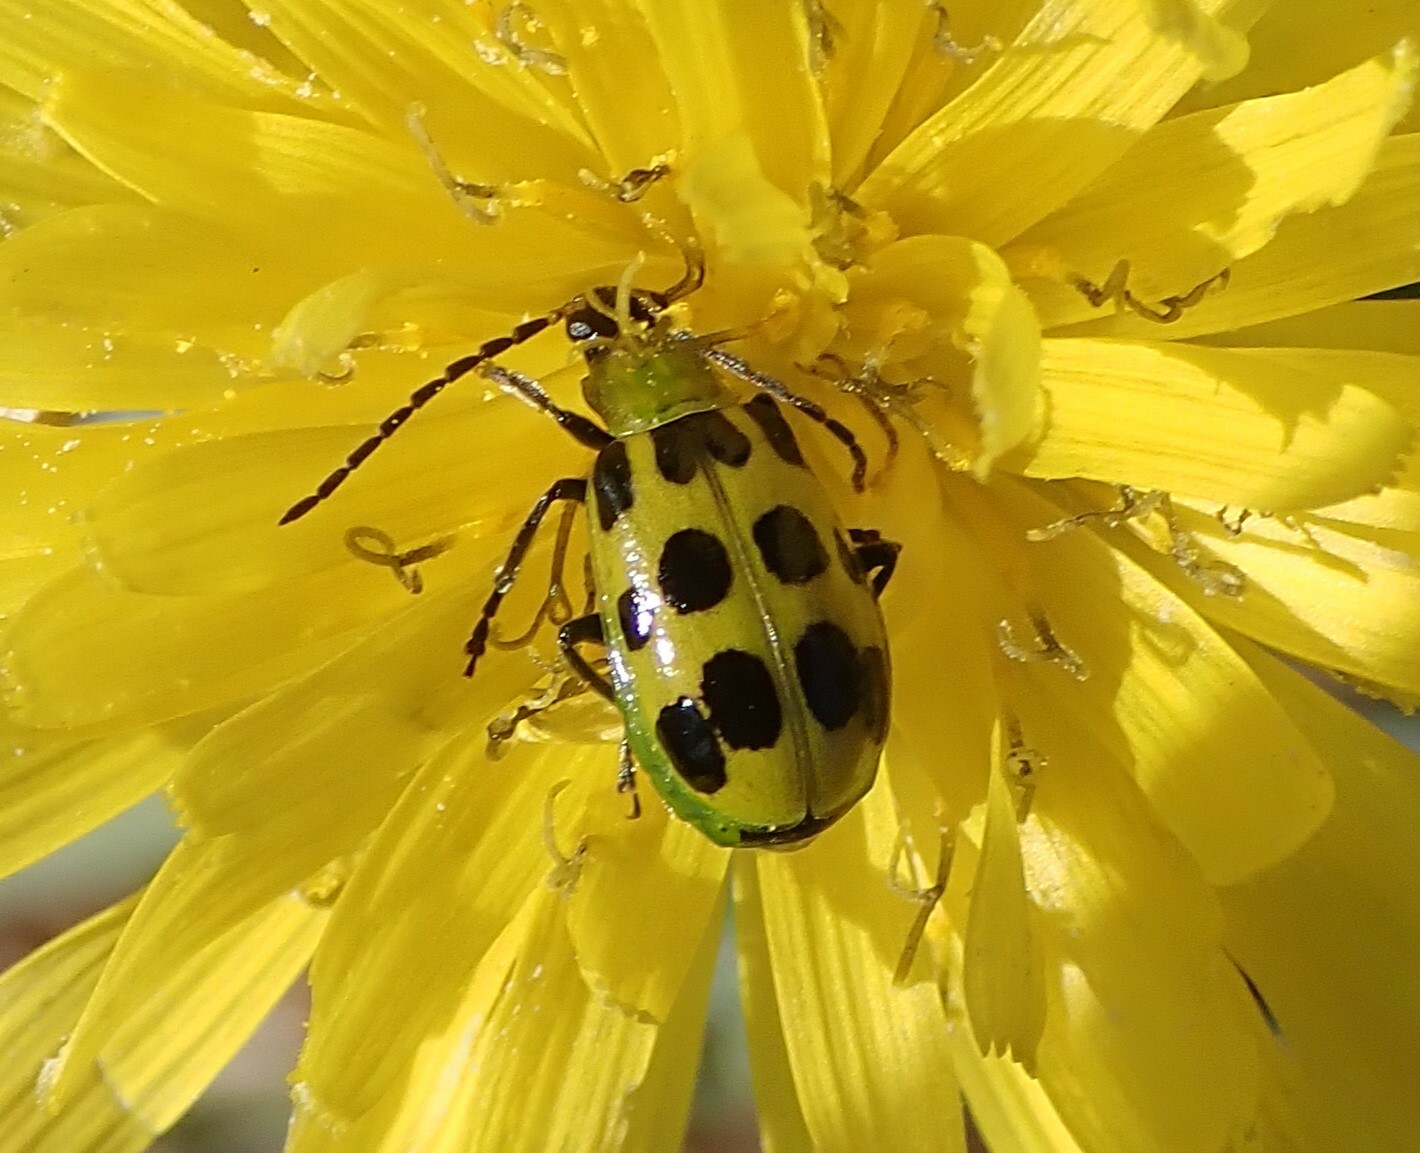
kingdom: Animalia
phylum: Arthropoda
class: Insecta
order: Coleoptera
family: Chrysomelidae
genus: Diabrotica
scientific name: Diabrotica undecimpunctata
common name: Spotted cucumber beetle
